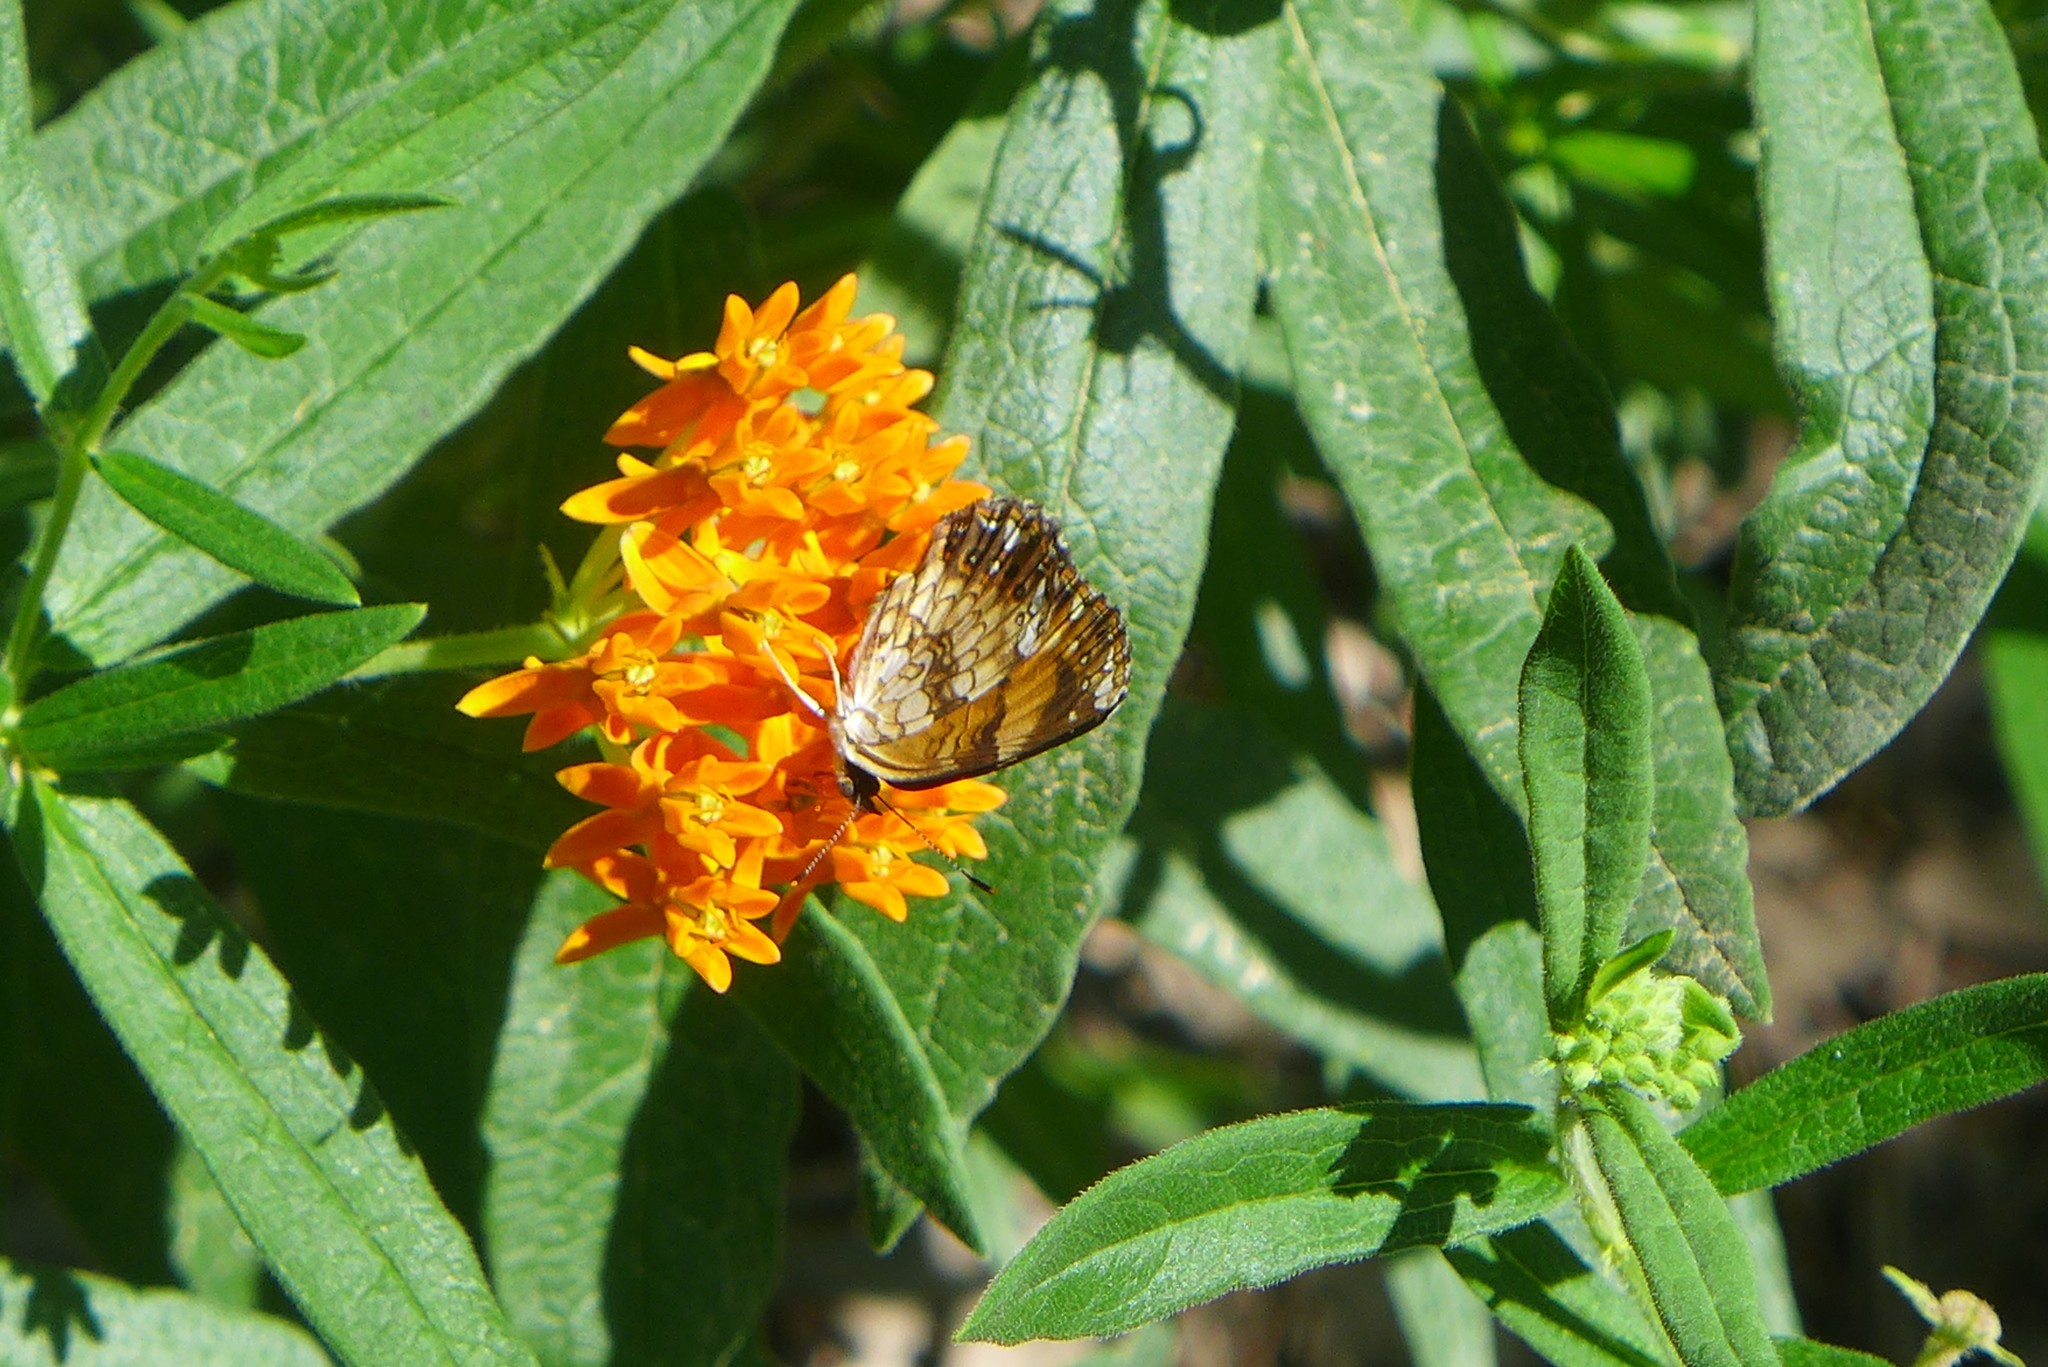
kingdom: Animalia
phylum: Arthropoda
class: Insecta
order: Lepidoptera
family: Nymphalidae
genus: Phyciodes
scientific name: Phyciodes tharos
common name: Pearl crescent
